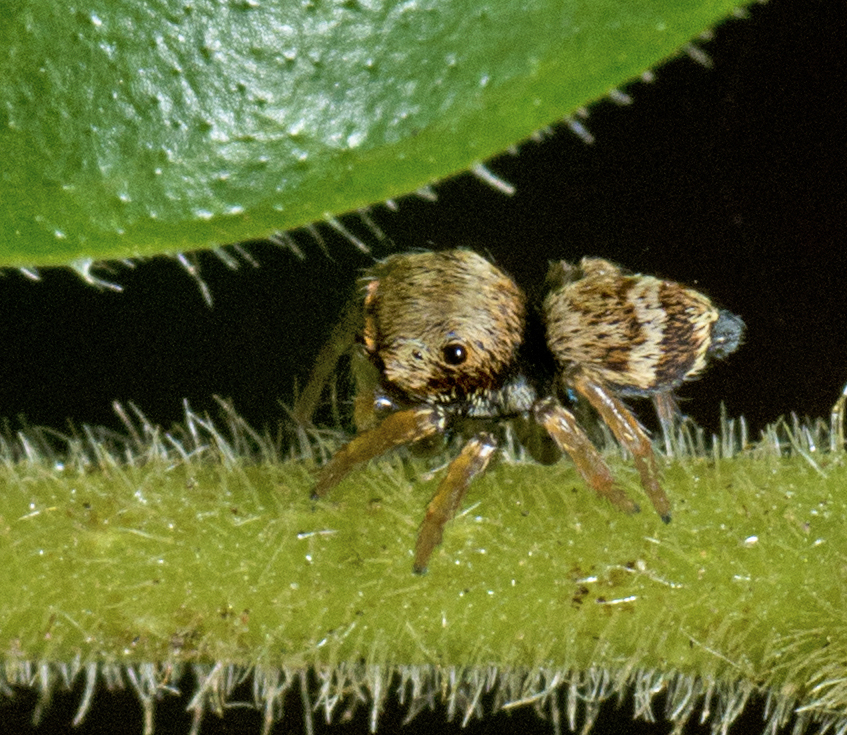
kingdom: Animalia
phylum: Arthropoda
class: Arachnida
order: Araneae
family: Salticidae
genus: Euryattus
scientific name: Euryattus bleekeri
